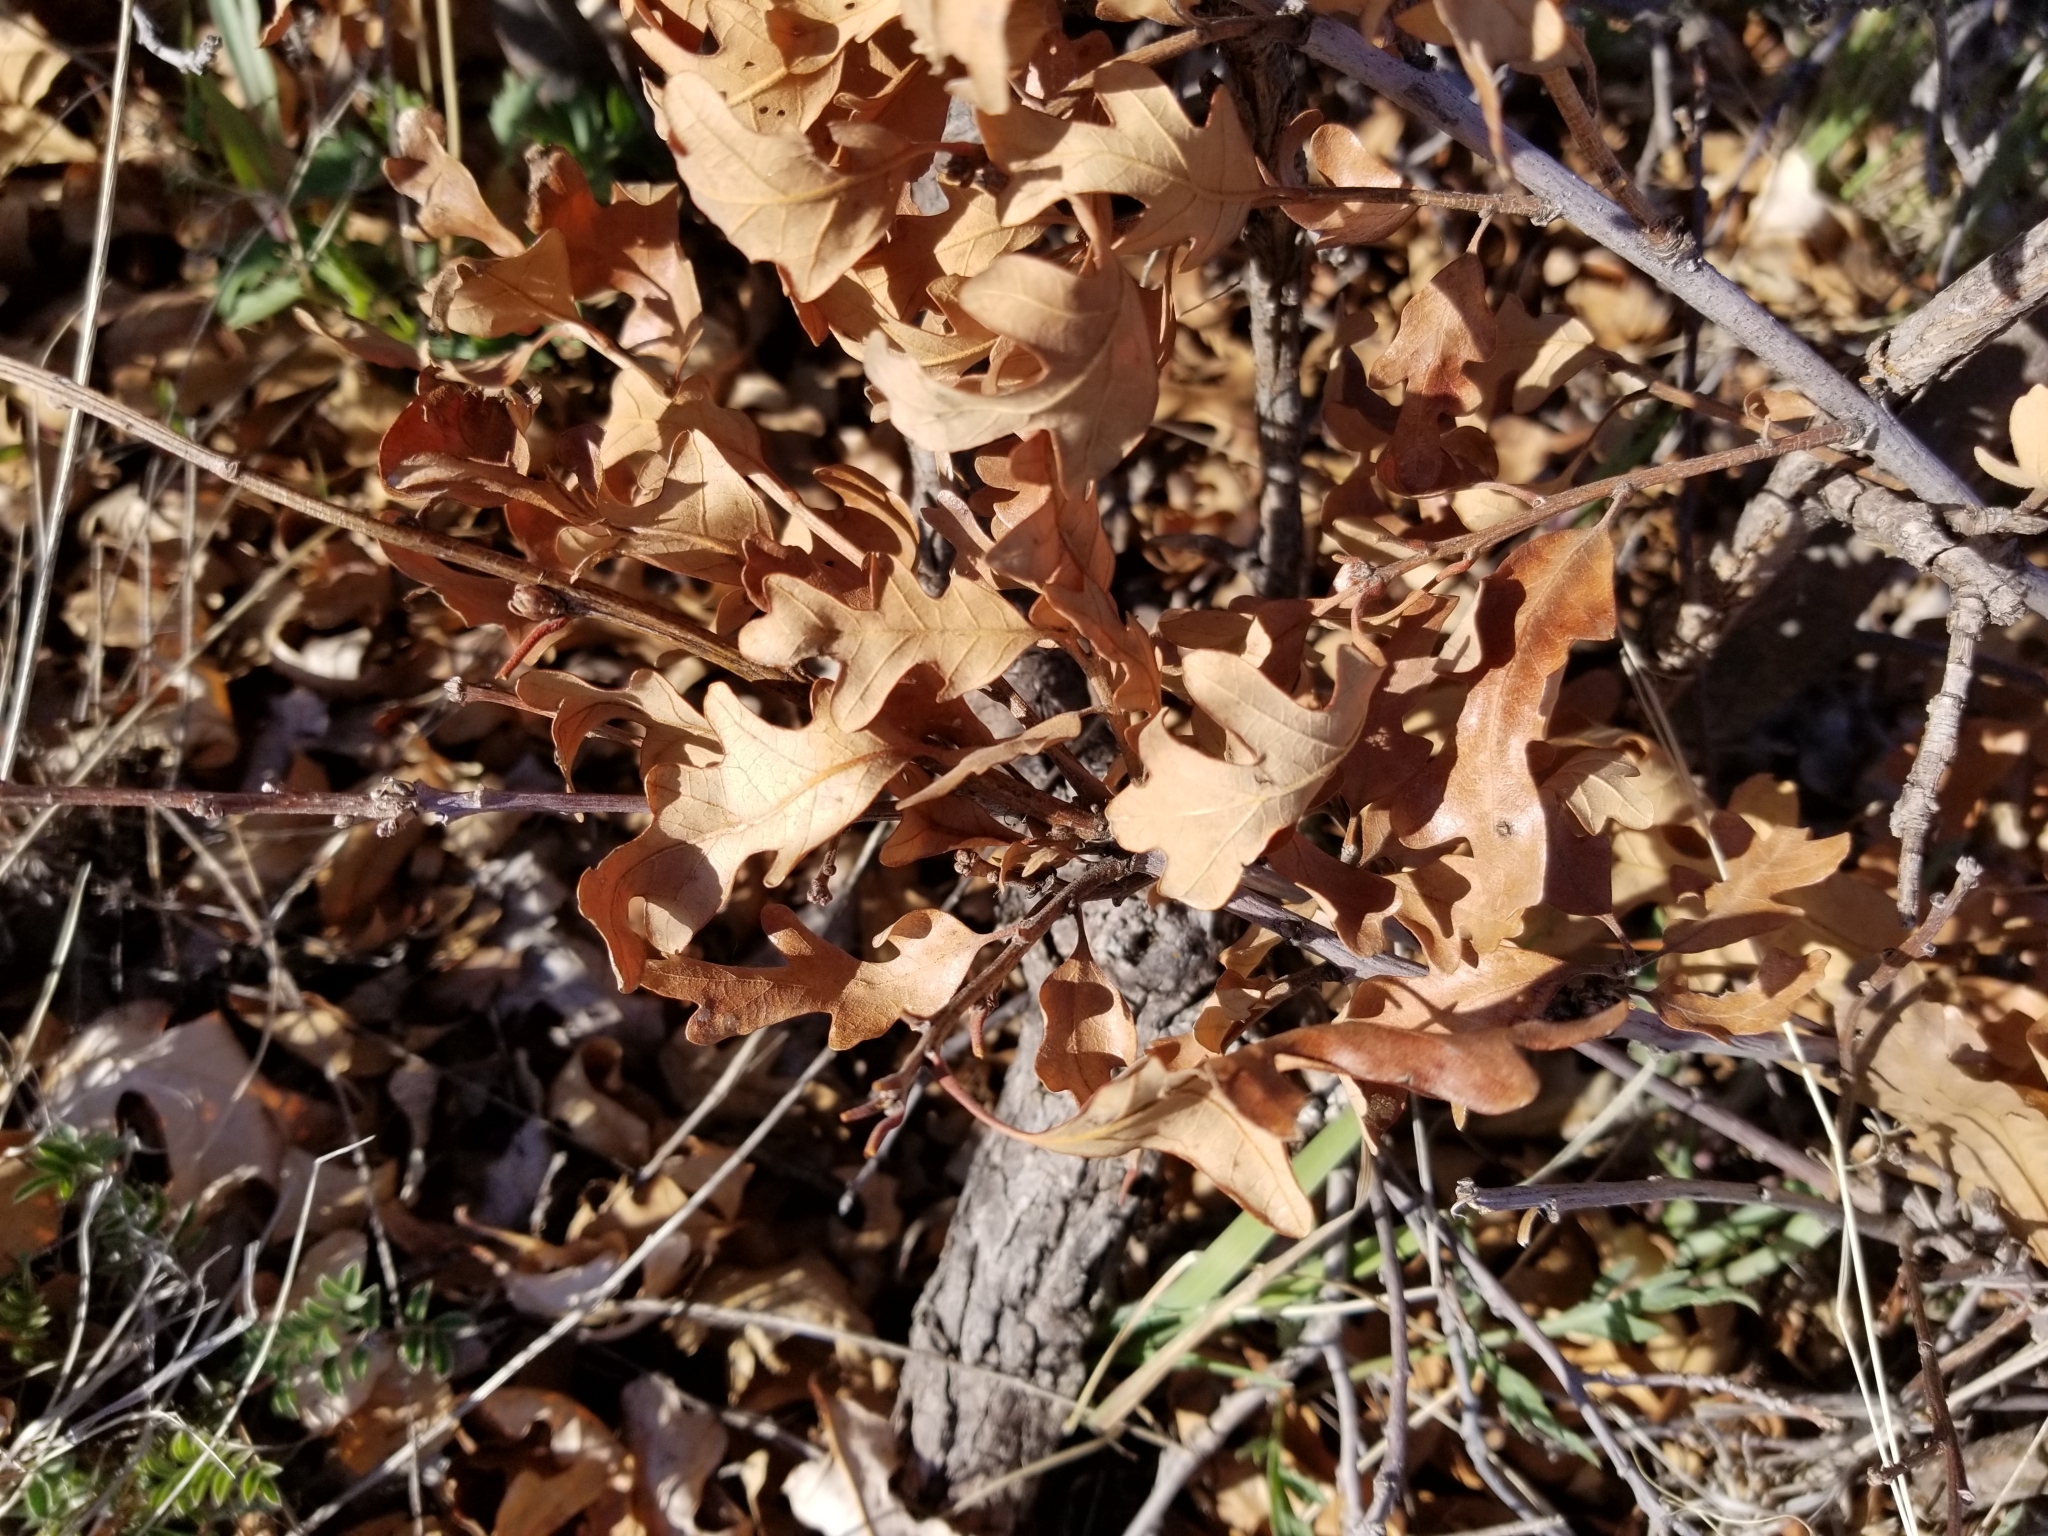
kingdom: Plantae
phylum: Tracheophyta
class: Magnoliopsida
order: Fagales
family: Fagaceae
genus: Quercus
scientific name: Quercus gambelii
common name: Gambel oak
